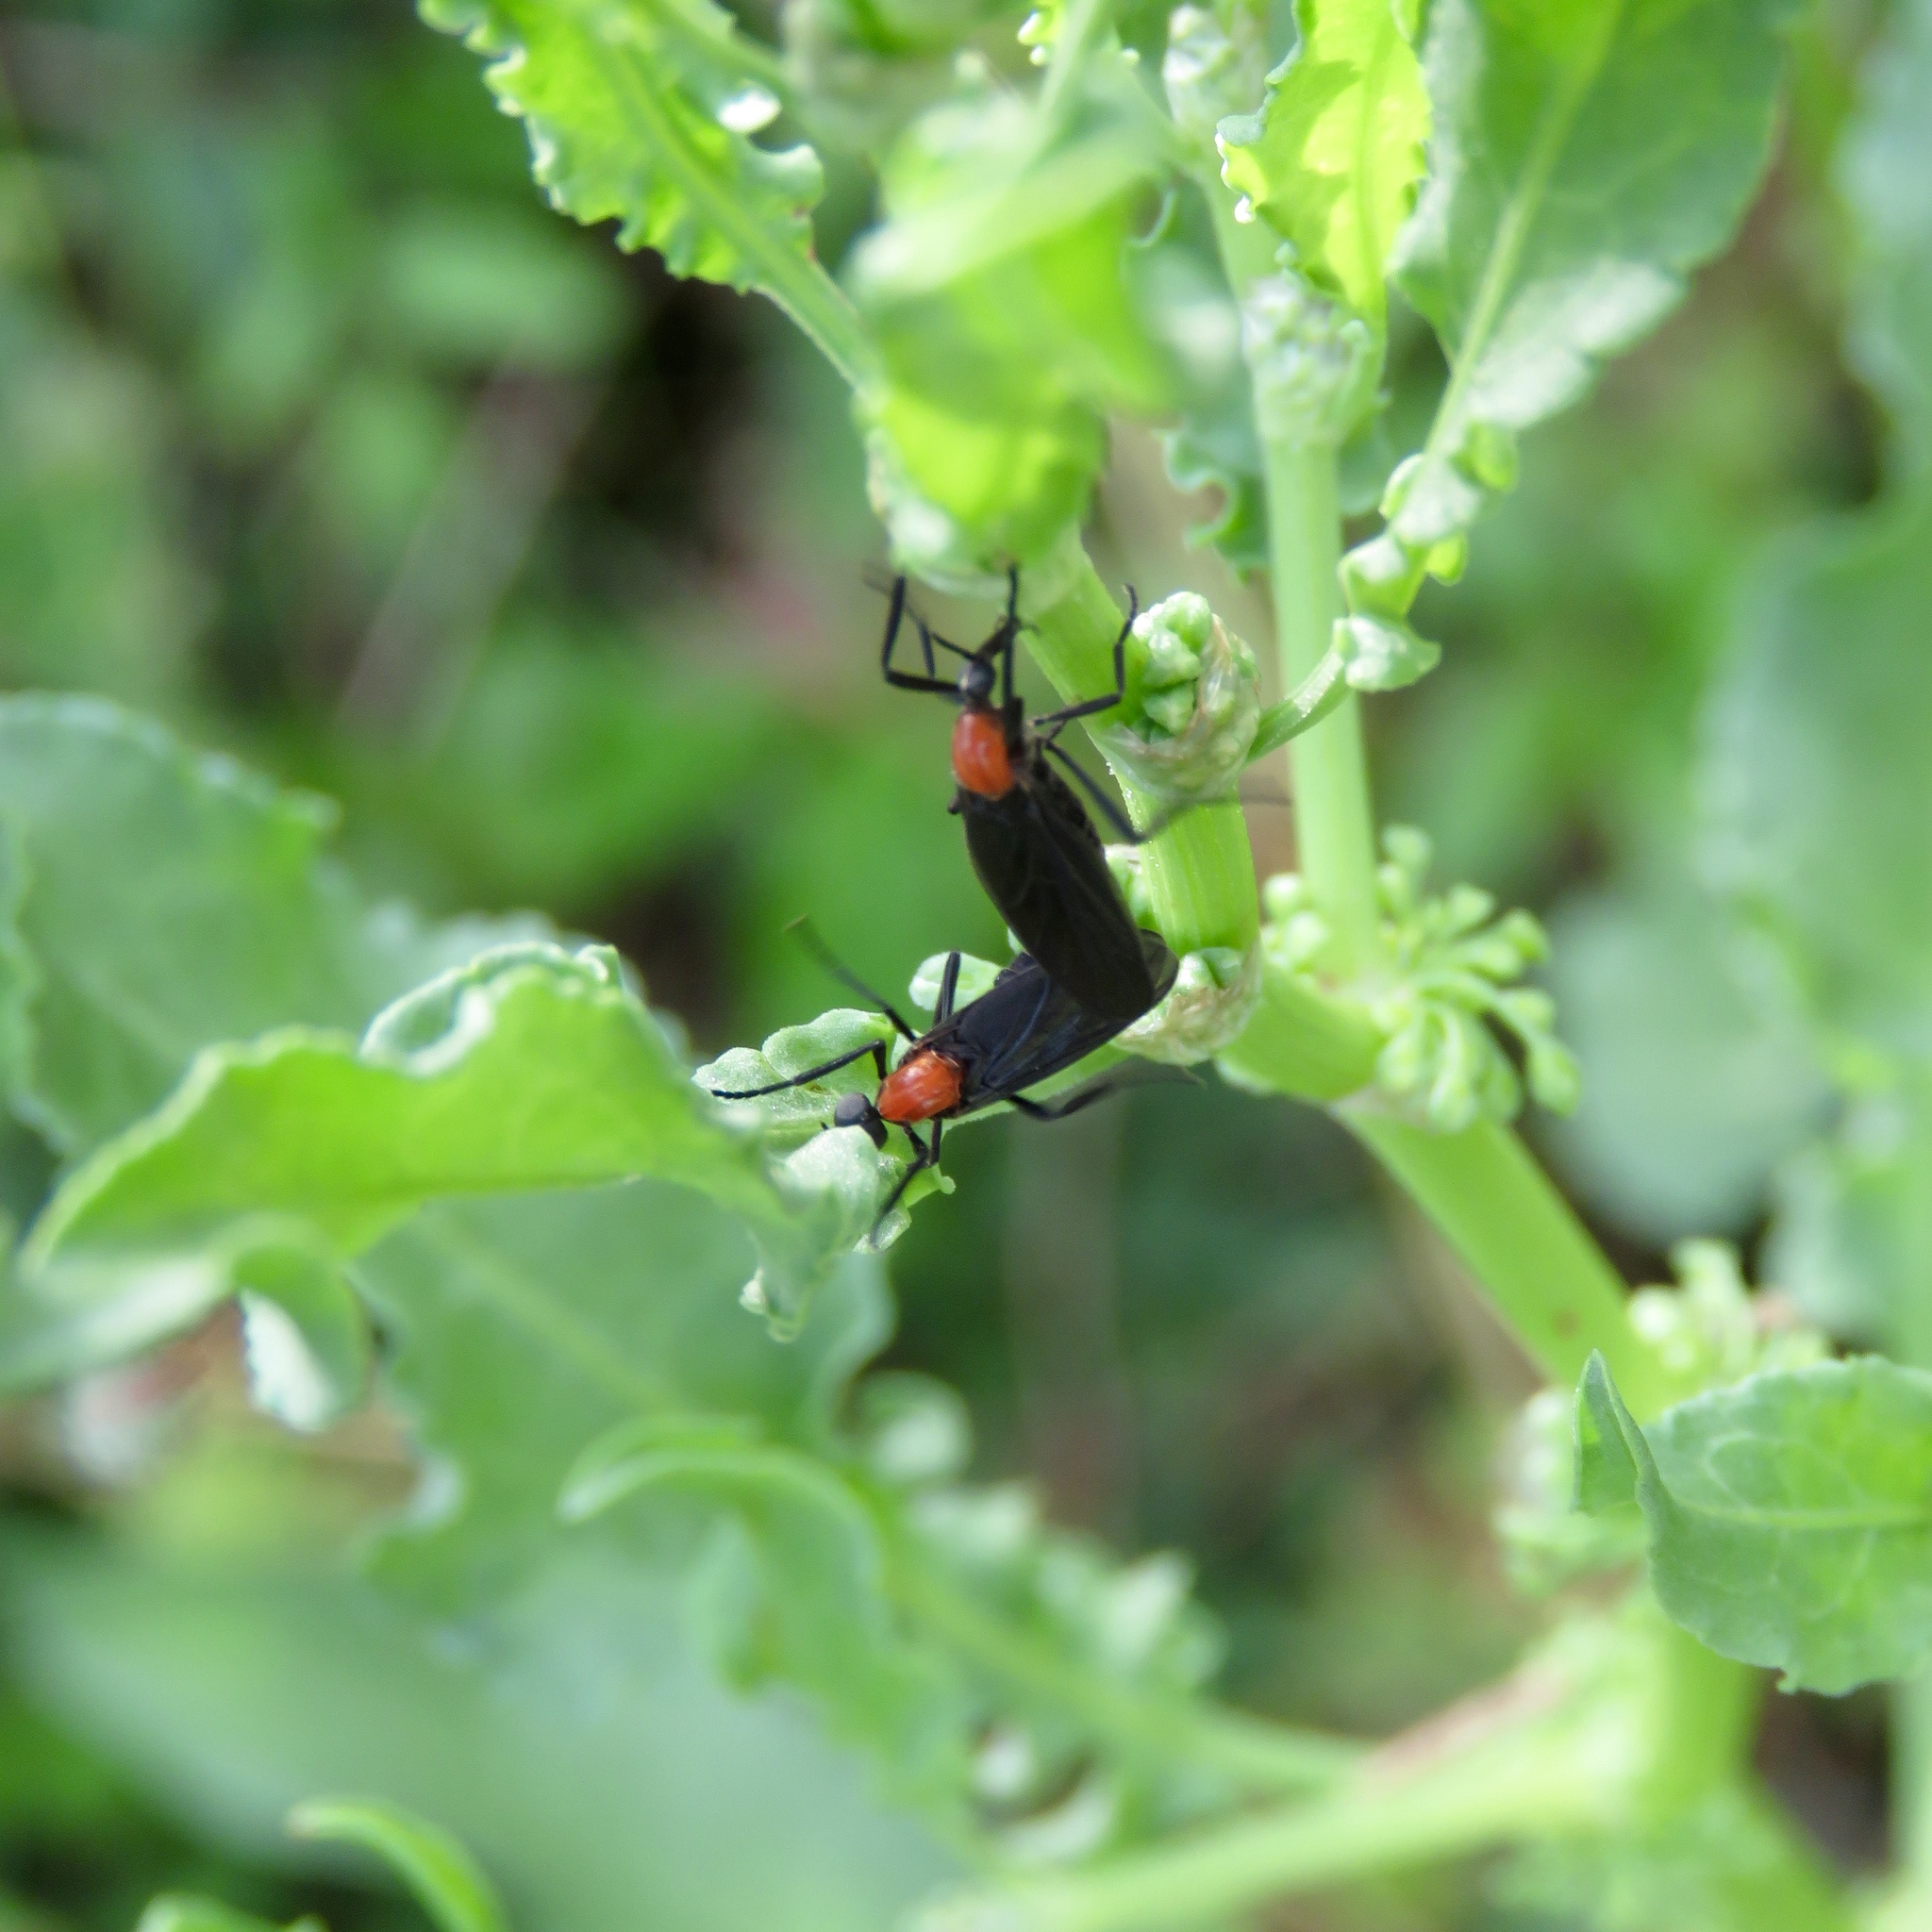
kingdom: Animalia
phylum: Arthropoda
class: Insecta
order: Diptera
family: Bibionidae
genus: Plecia
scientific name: Plecia nearctica
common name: March fly
